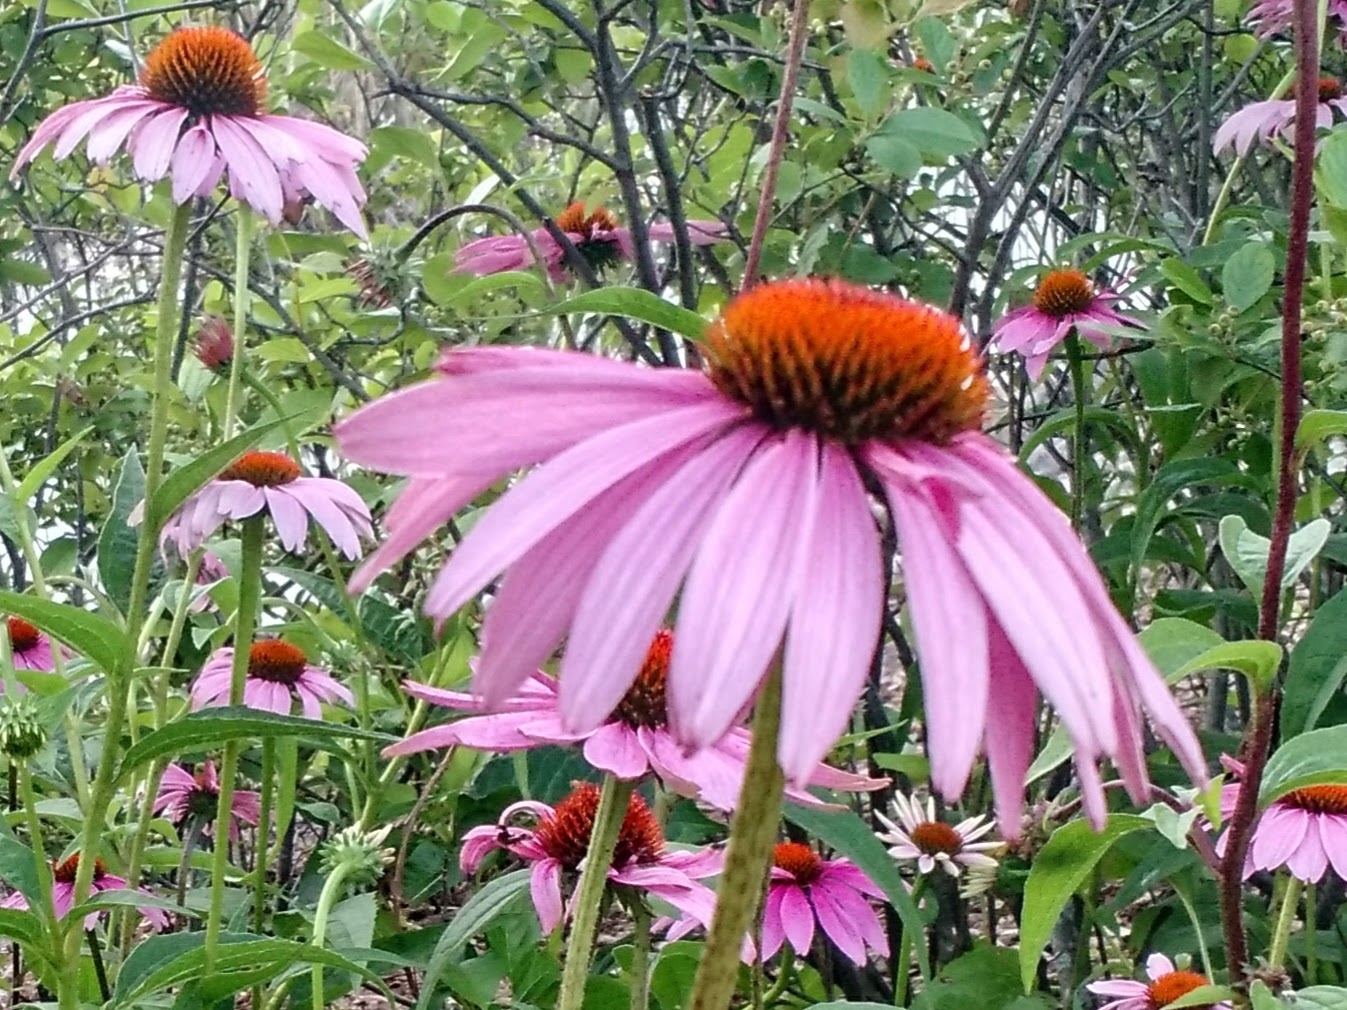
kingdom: Plantae
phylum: Tracheophyta
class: Magnoliopsida
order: Asterales
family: Asteraceae
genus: Echinacea
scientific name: Echinacea purpurea
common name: Broad-leaved purple coneflower
